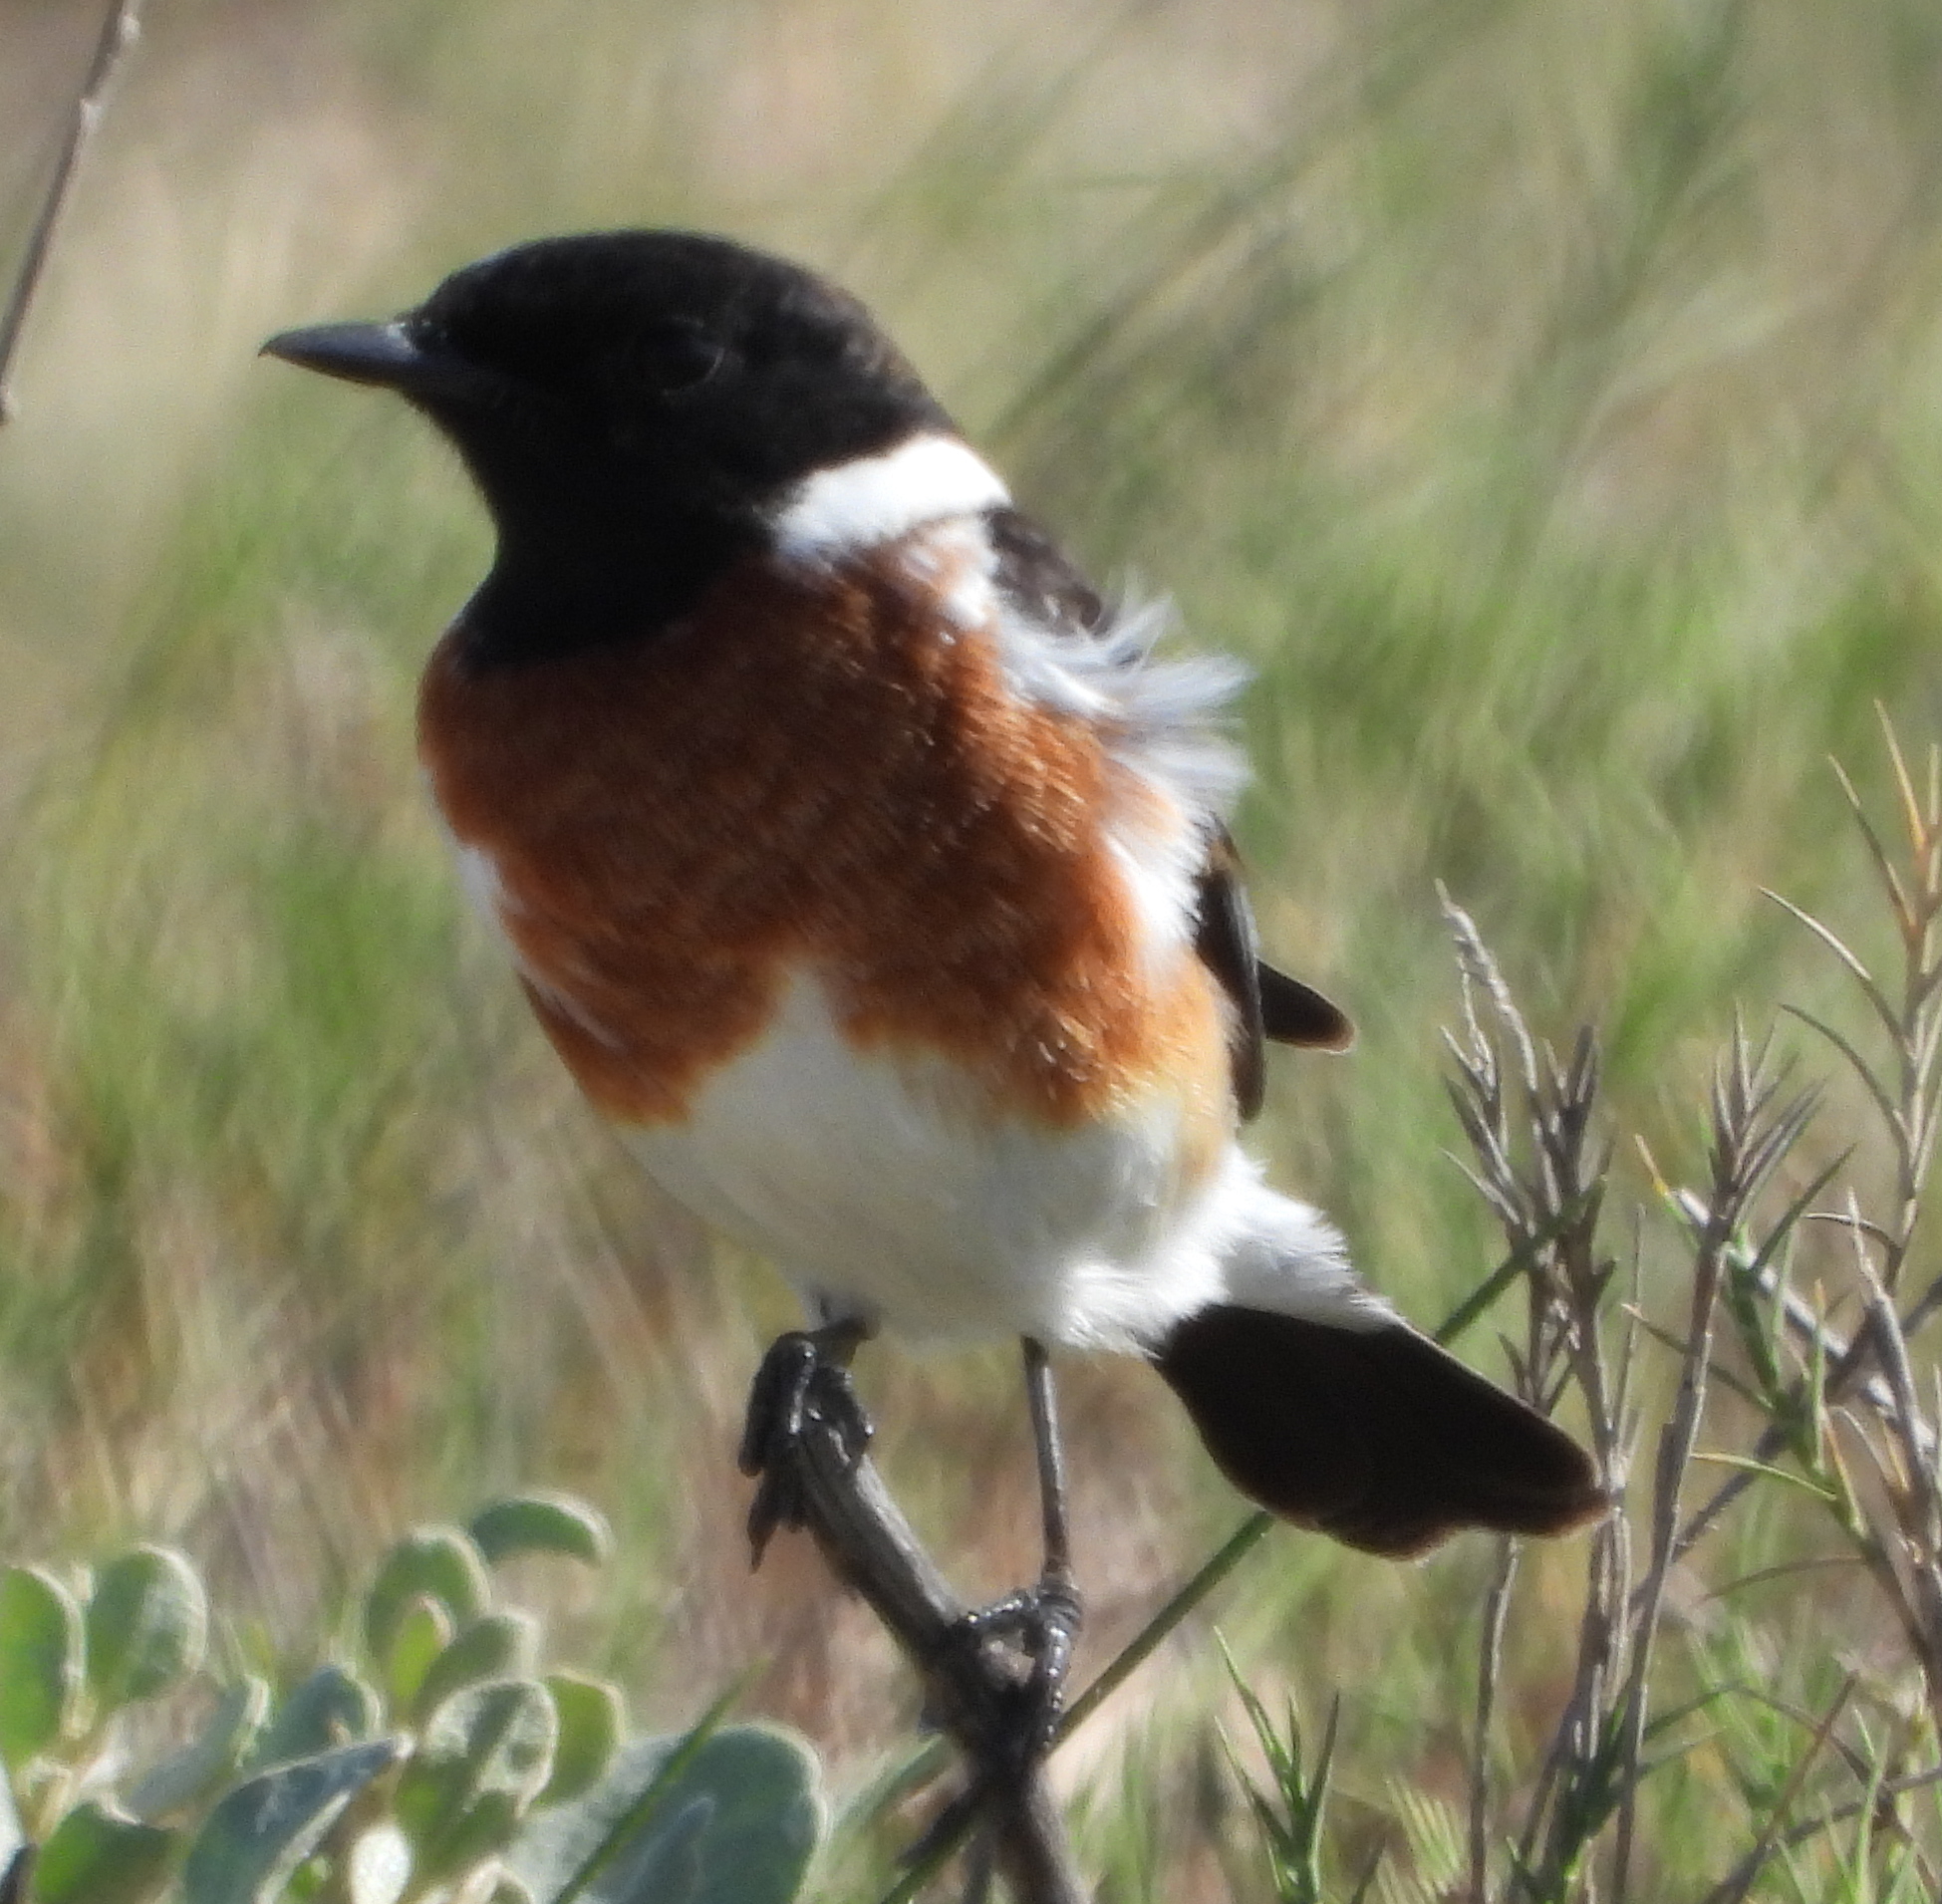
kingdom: Animalia
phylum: Chordata
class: Aves
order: Passeriformes
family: Muscicapidae
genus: Saxicola
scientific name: Saxicola torquatus
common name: African stonechat
